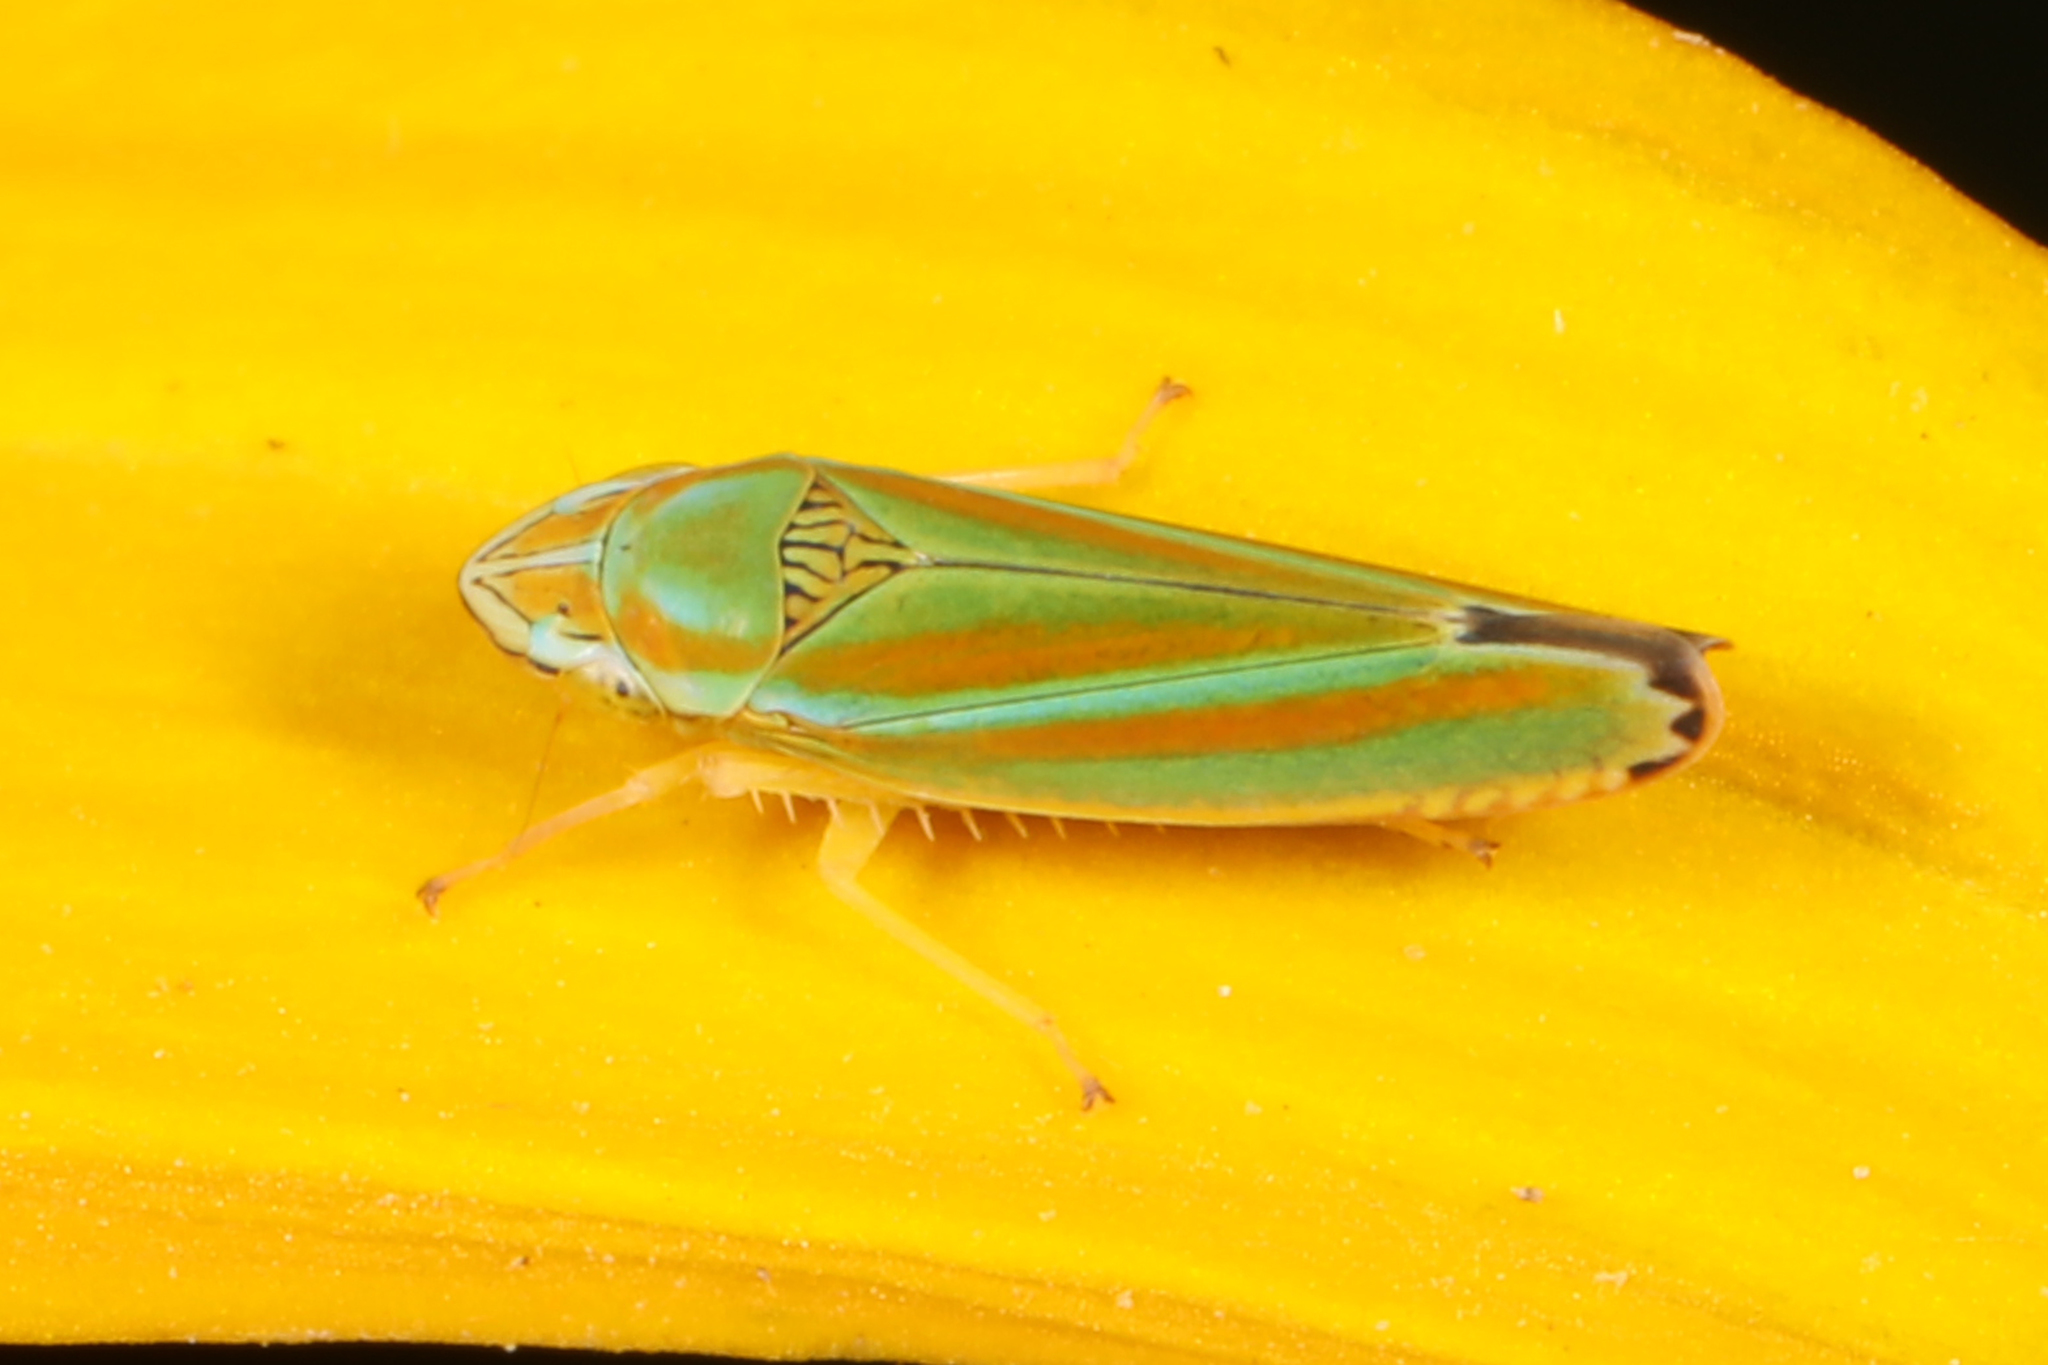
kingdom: Animalia
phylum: Arthropoda
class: Insecta
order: Hemiptera
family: Cicadellidae
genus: Graphocephala
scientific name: Graphocephala versuta
